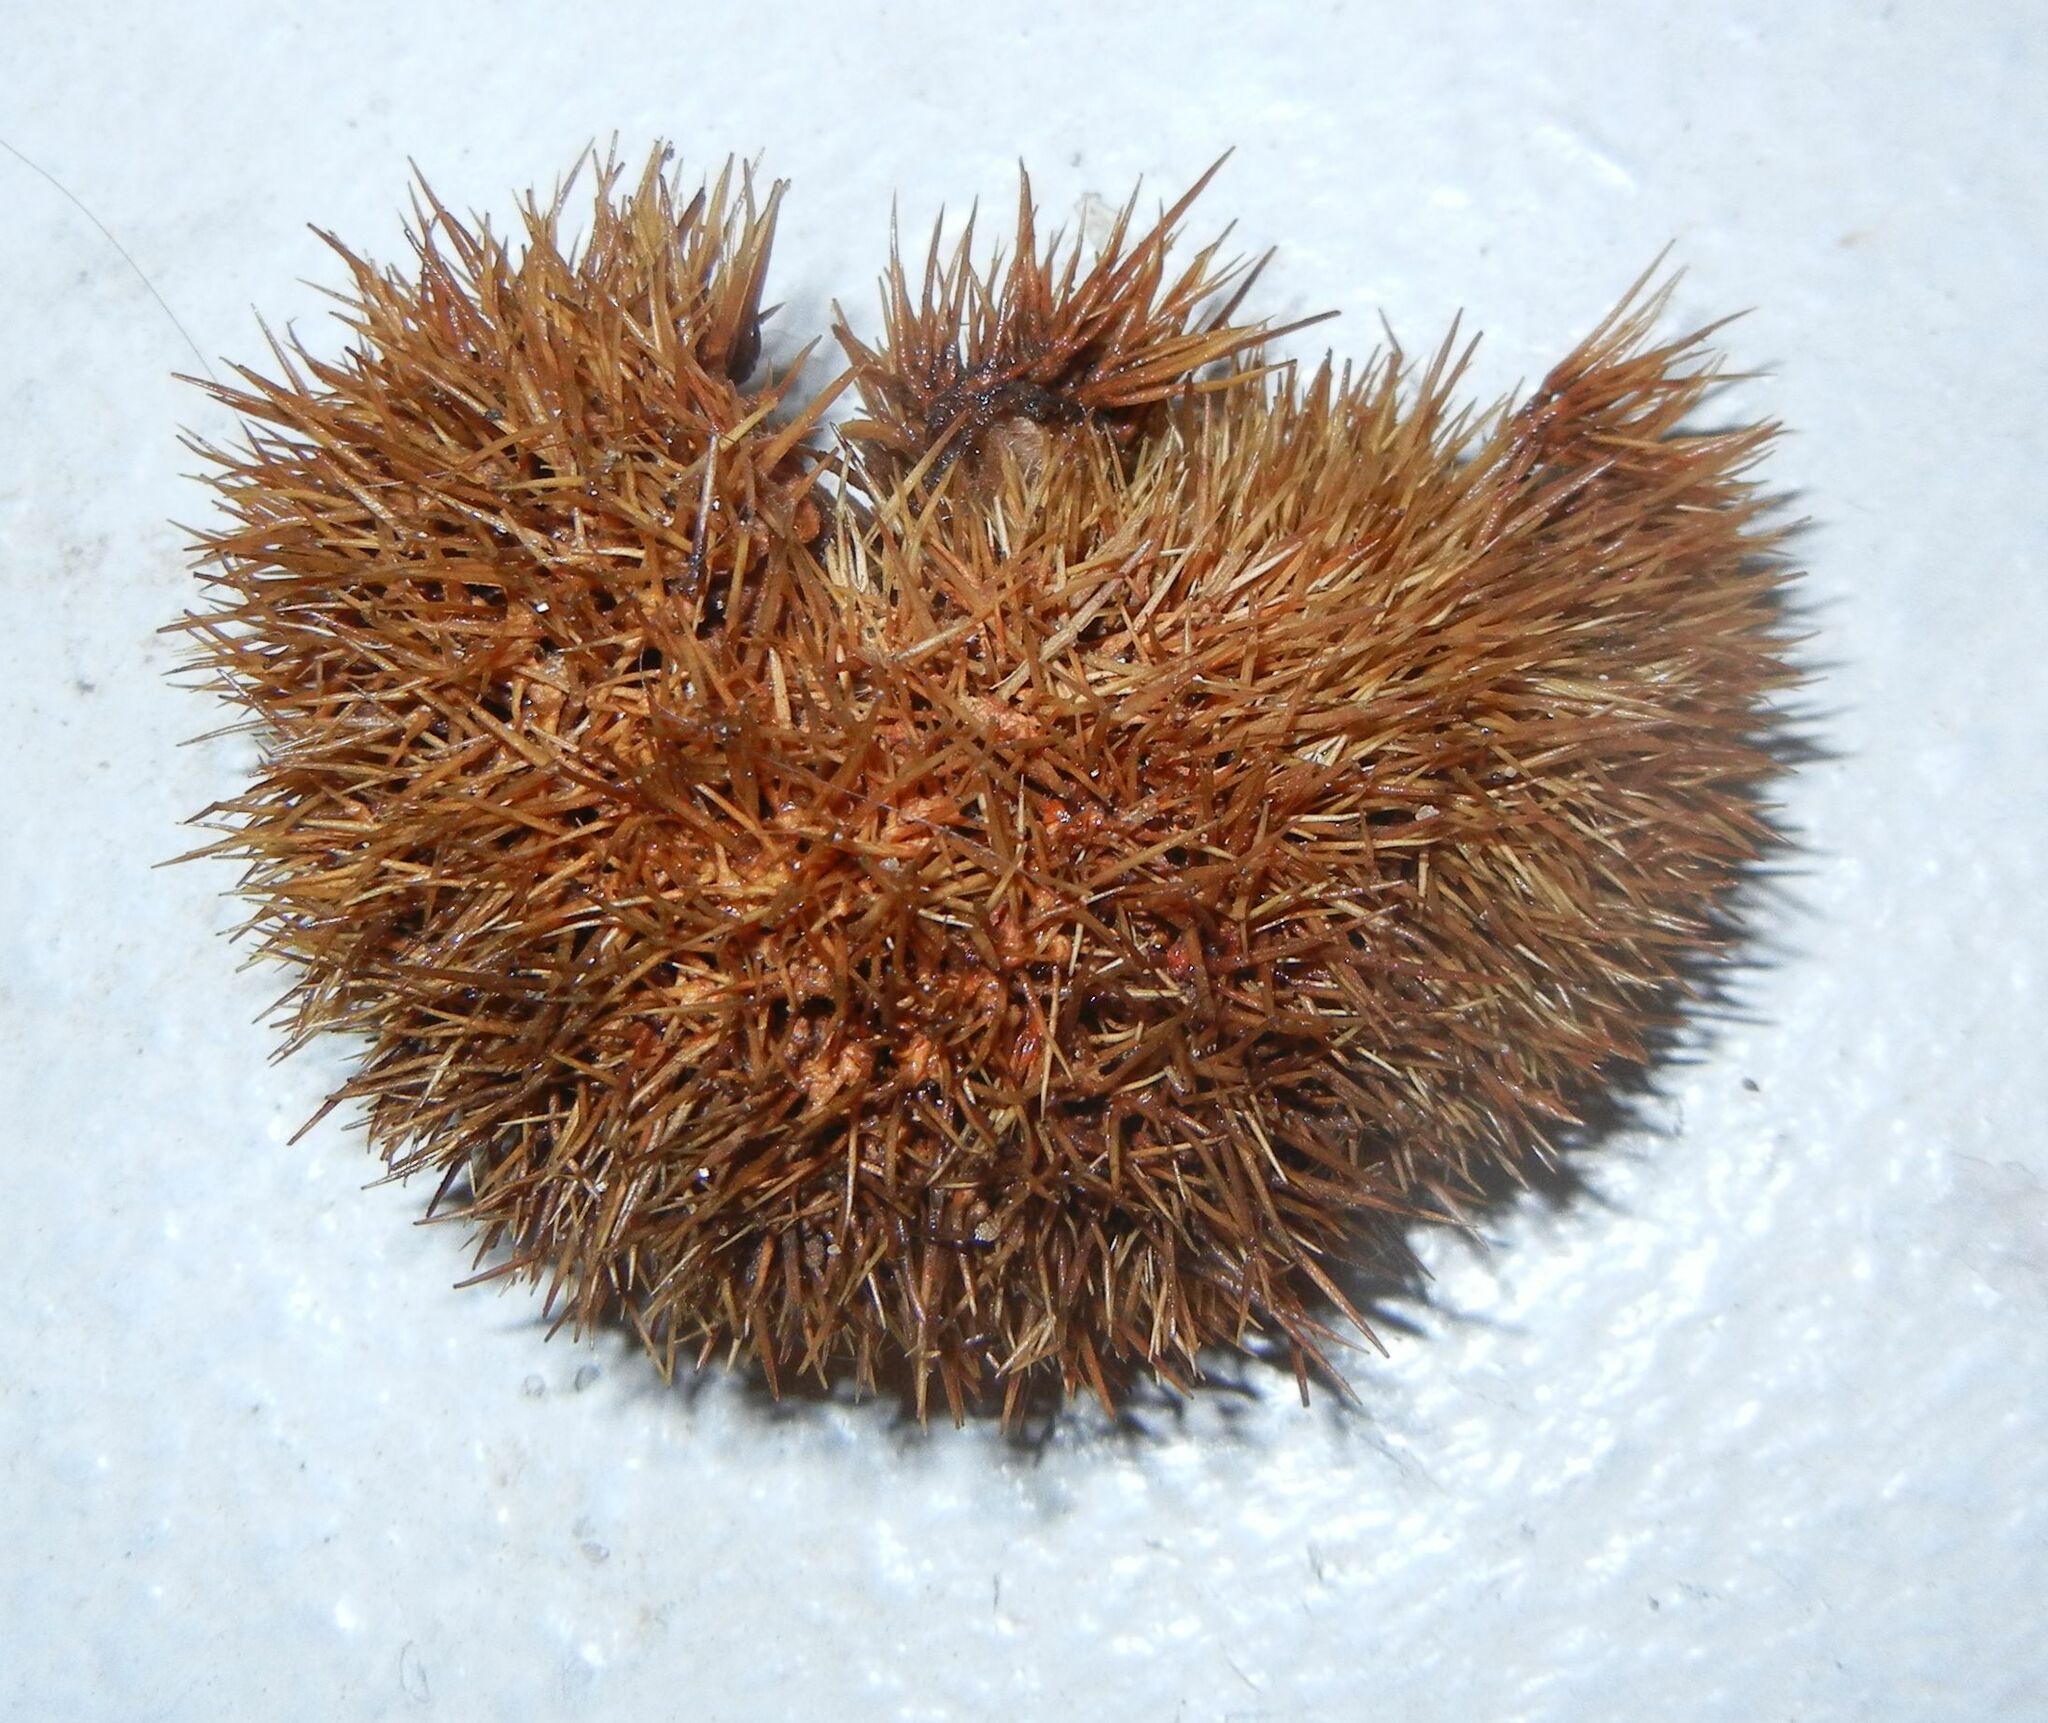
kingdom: Animalia
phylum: Chordata
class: Mammalia
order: Erinaceomorpha
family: Erinaceidae
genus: Erinaceus
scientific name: Erinaceus europaeus
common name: West european hedgehog
